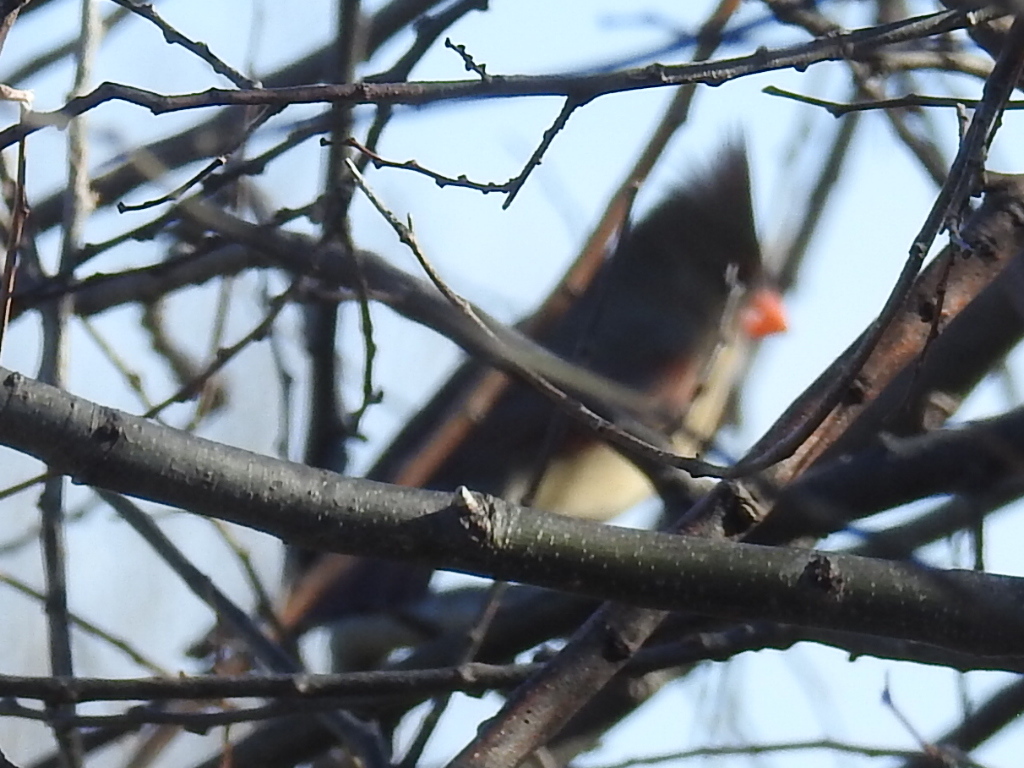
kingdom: Animalia
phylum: Chordata
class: Aves
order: Passeriformes
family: Cardinalidae
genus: Cardinalis
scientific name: Cardinalis cardinalis
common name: Northern cardinal
